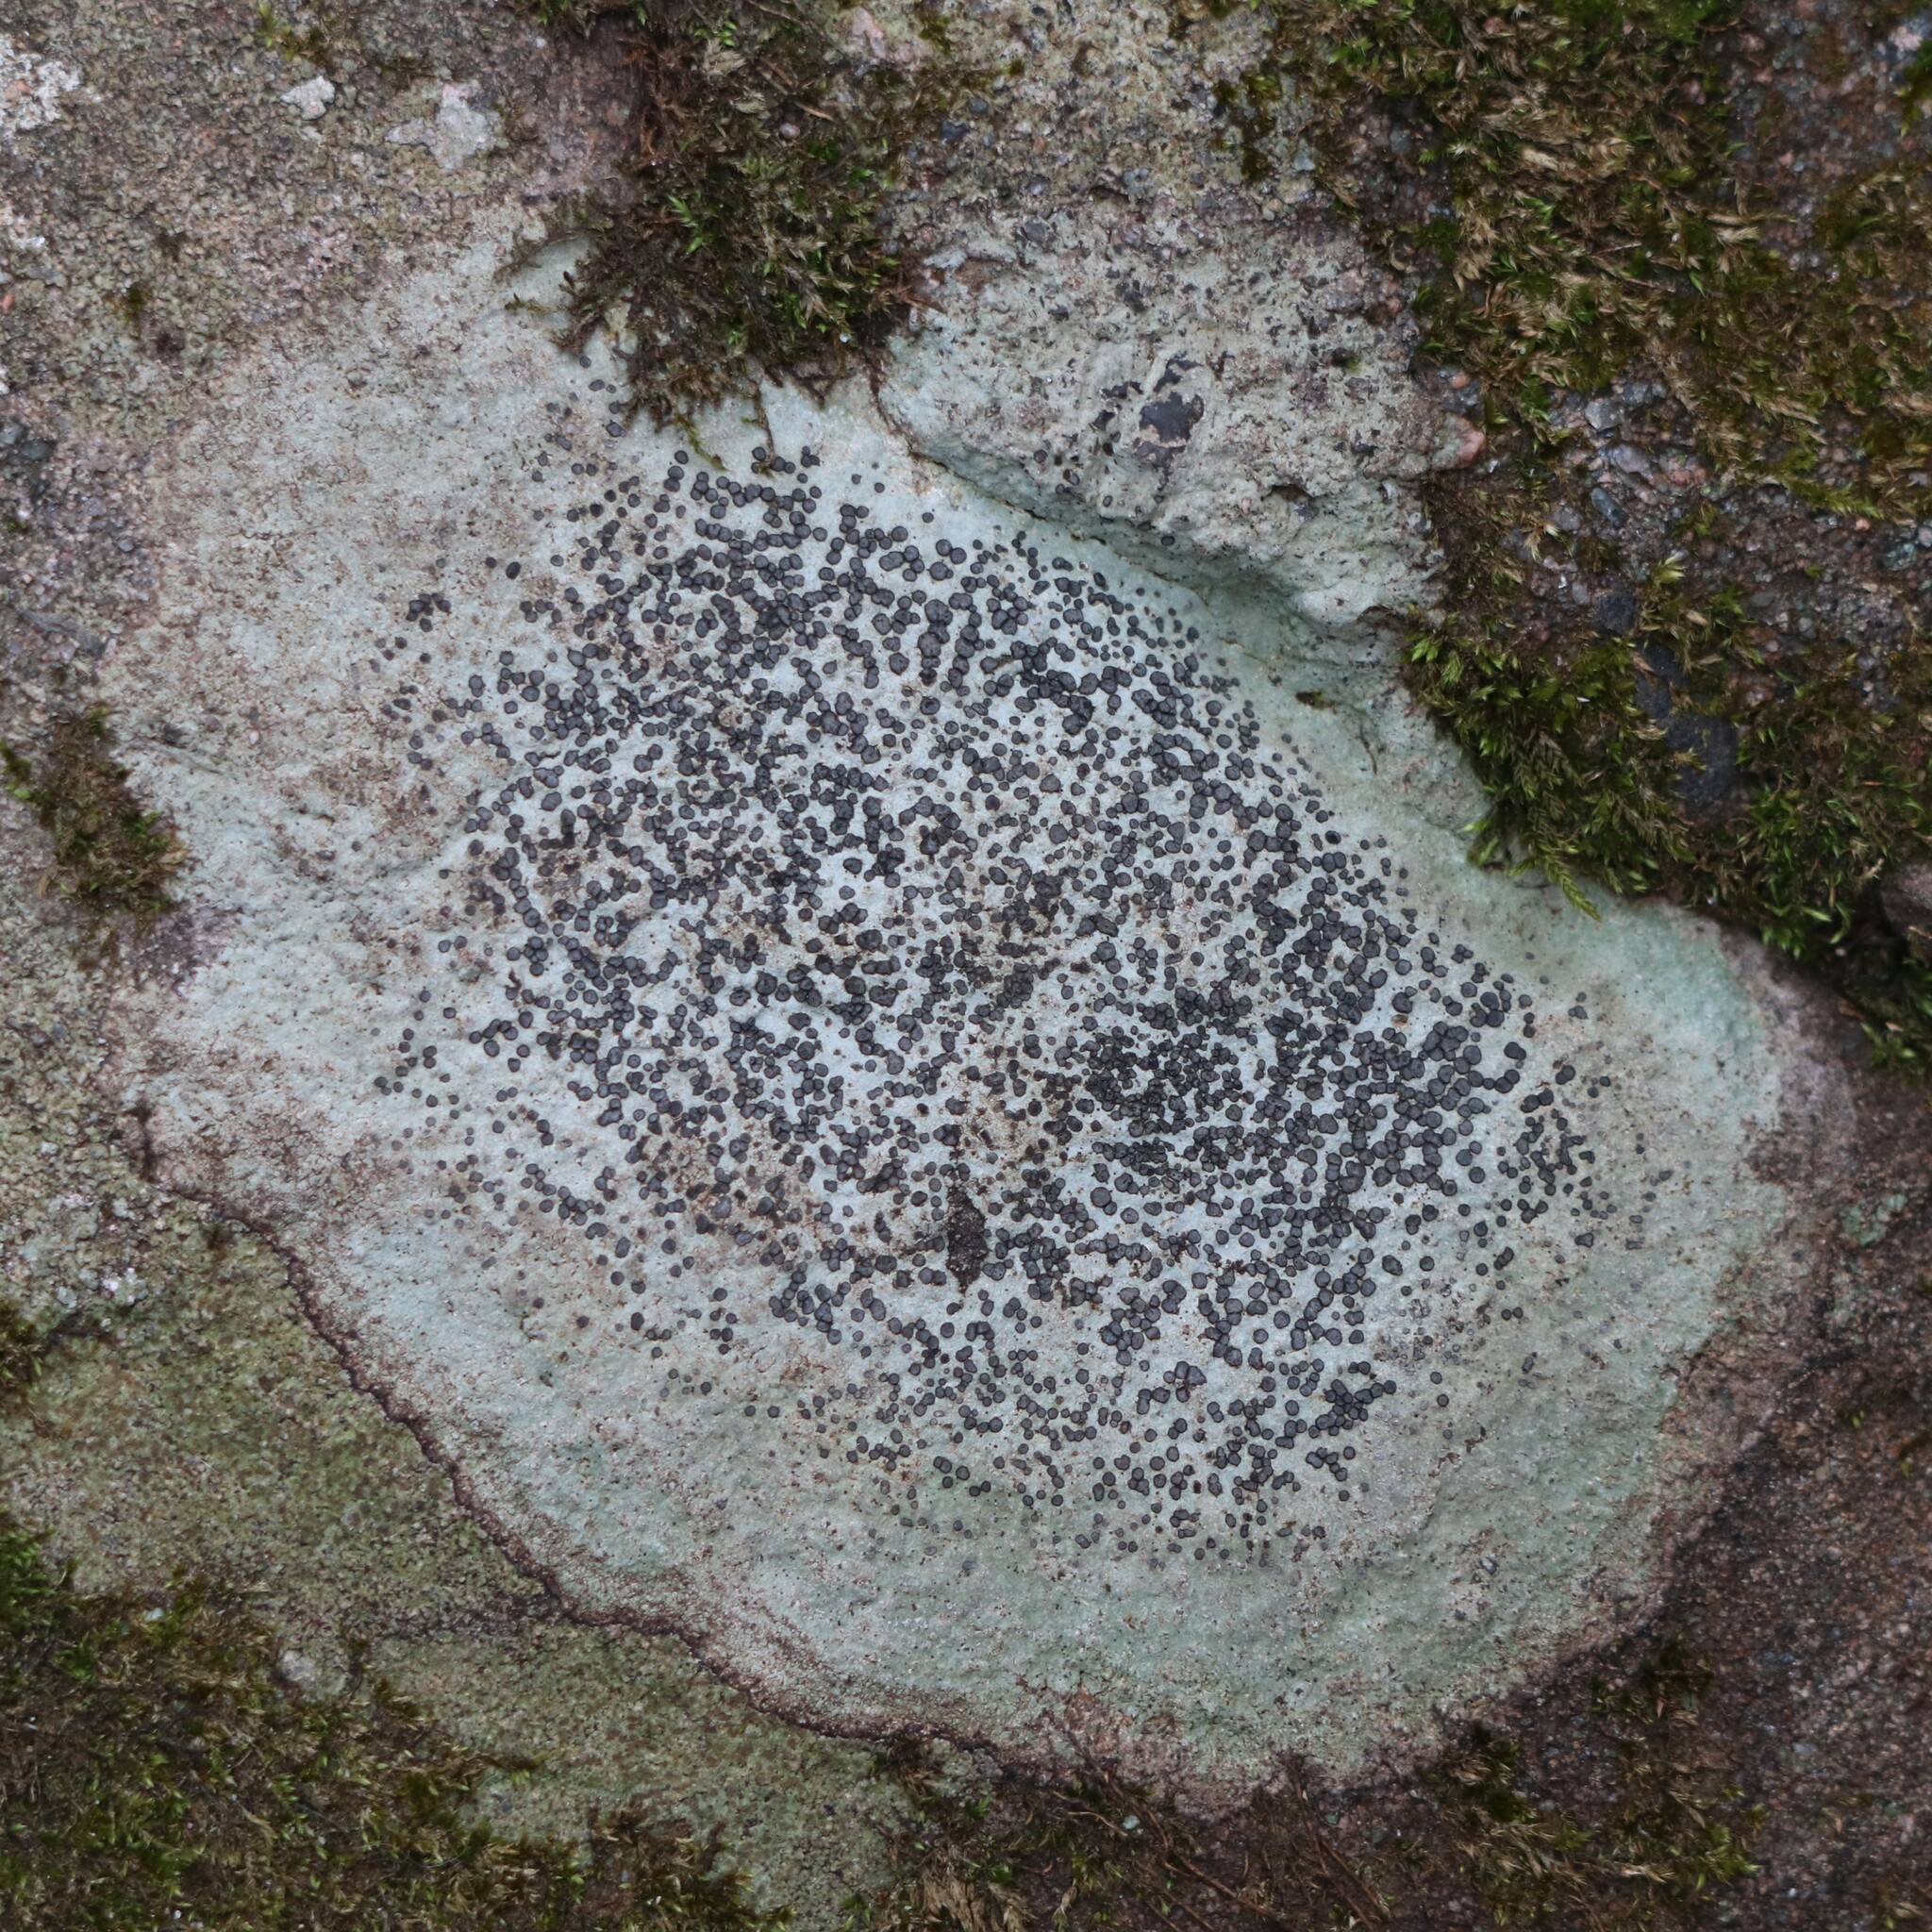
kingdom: Fungi
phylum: Ascomycota
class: Lecanoromycetes
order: Lecideales
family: Lecideaceae
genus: Porpidia
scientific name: Porpidia albocaerulescens
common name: Smokey-eyed boulder lichen
